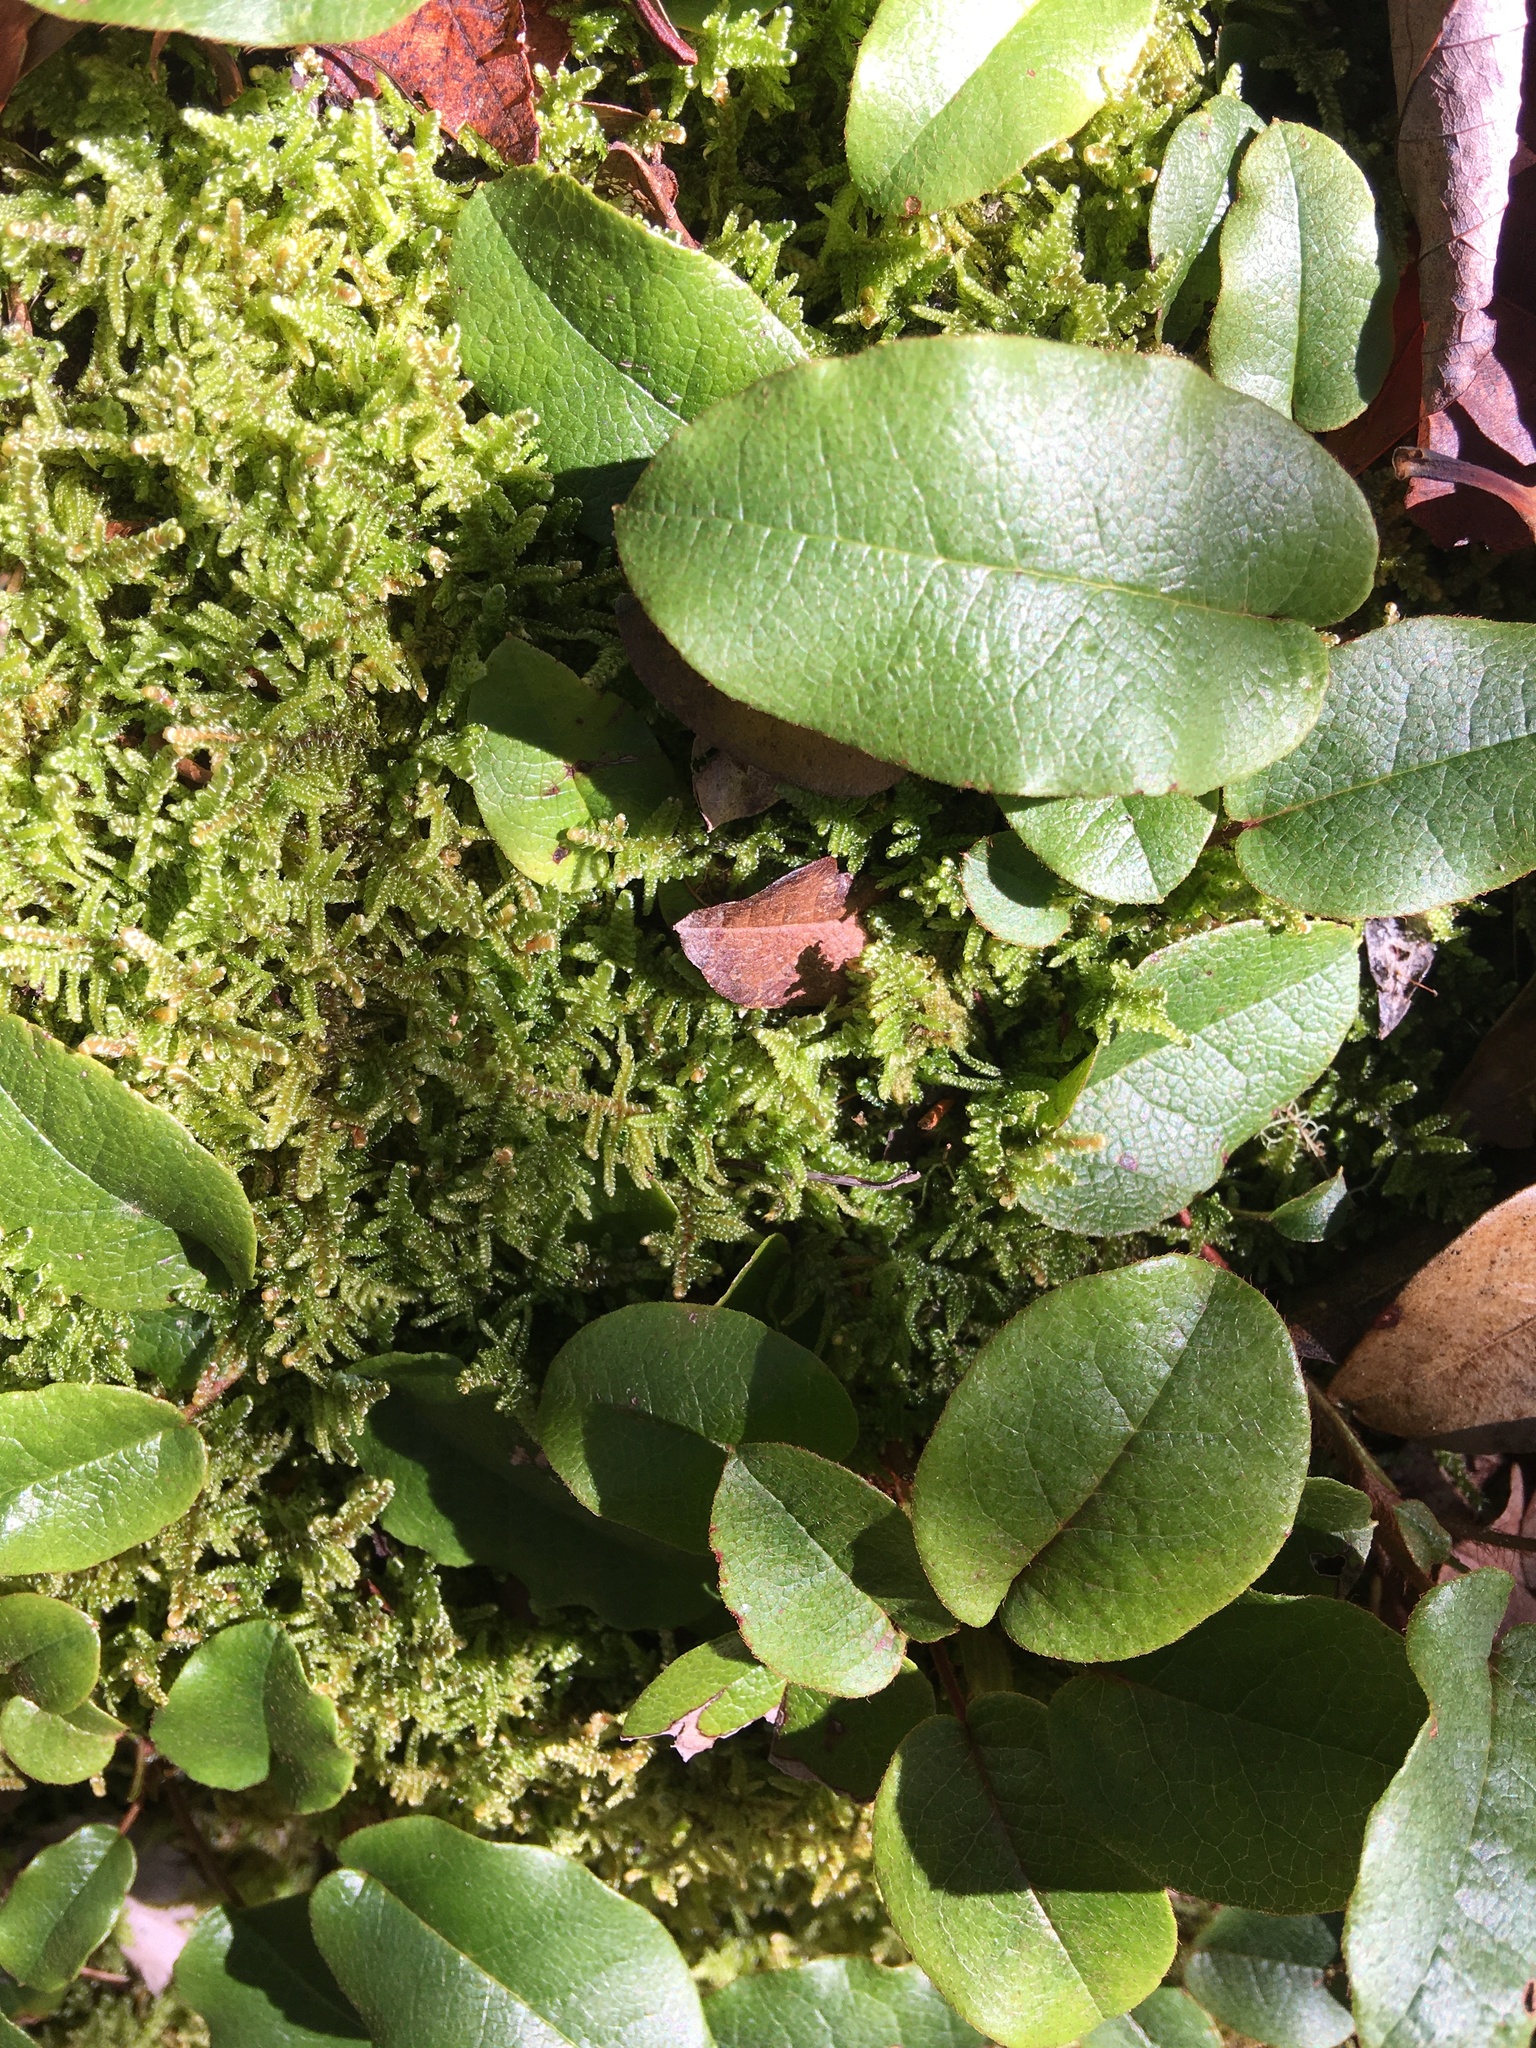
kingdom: Plantae
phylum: Tracheophyta
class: Magnoliopsida
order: Ericales
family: Ericaceae
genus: Epigaea
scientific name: Epigaea repens
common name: Gravelroot
